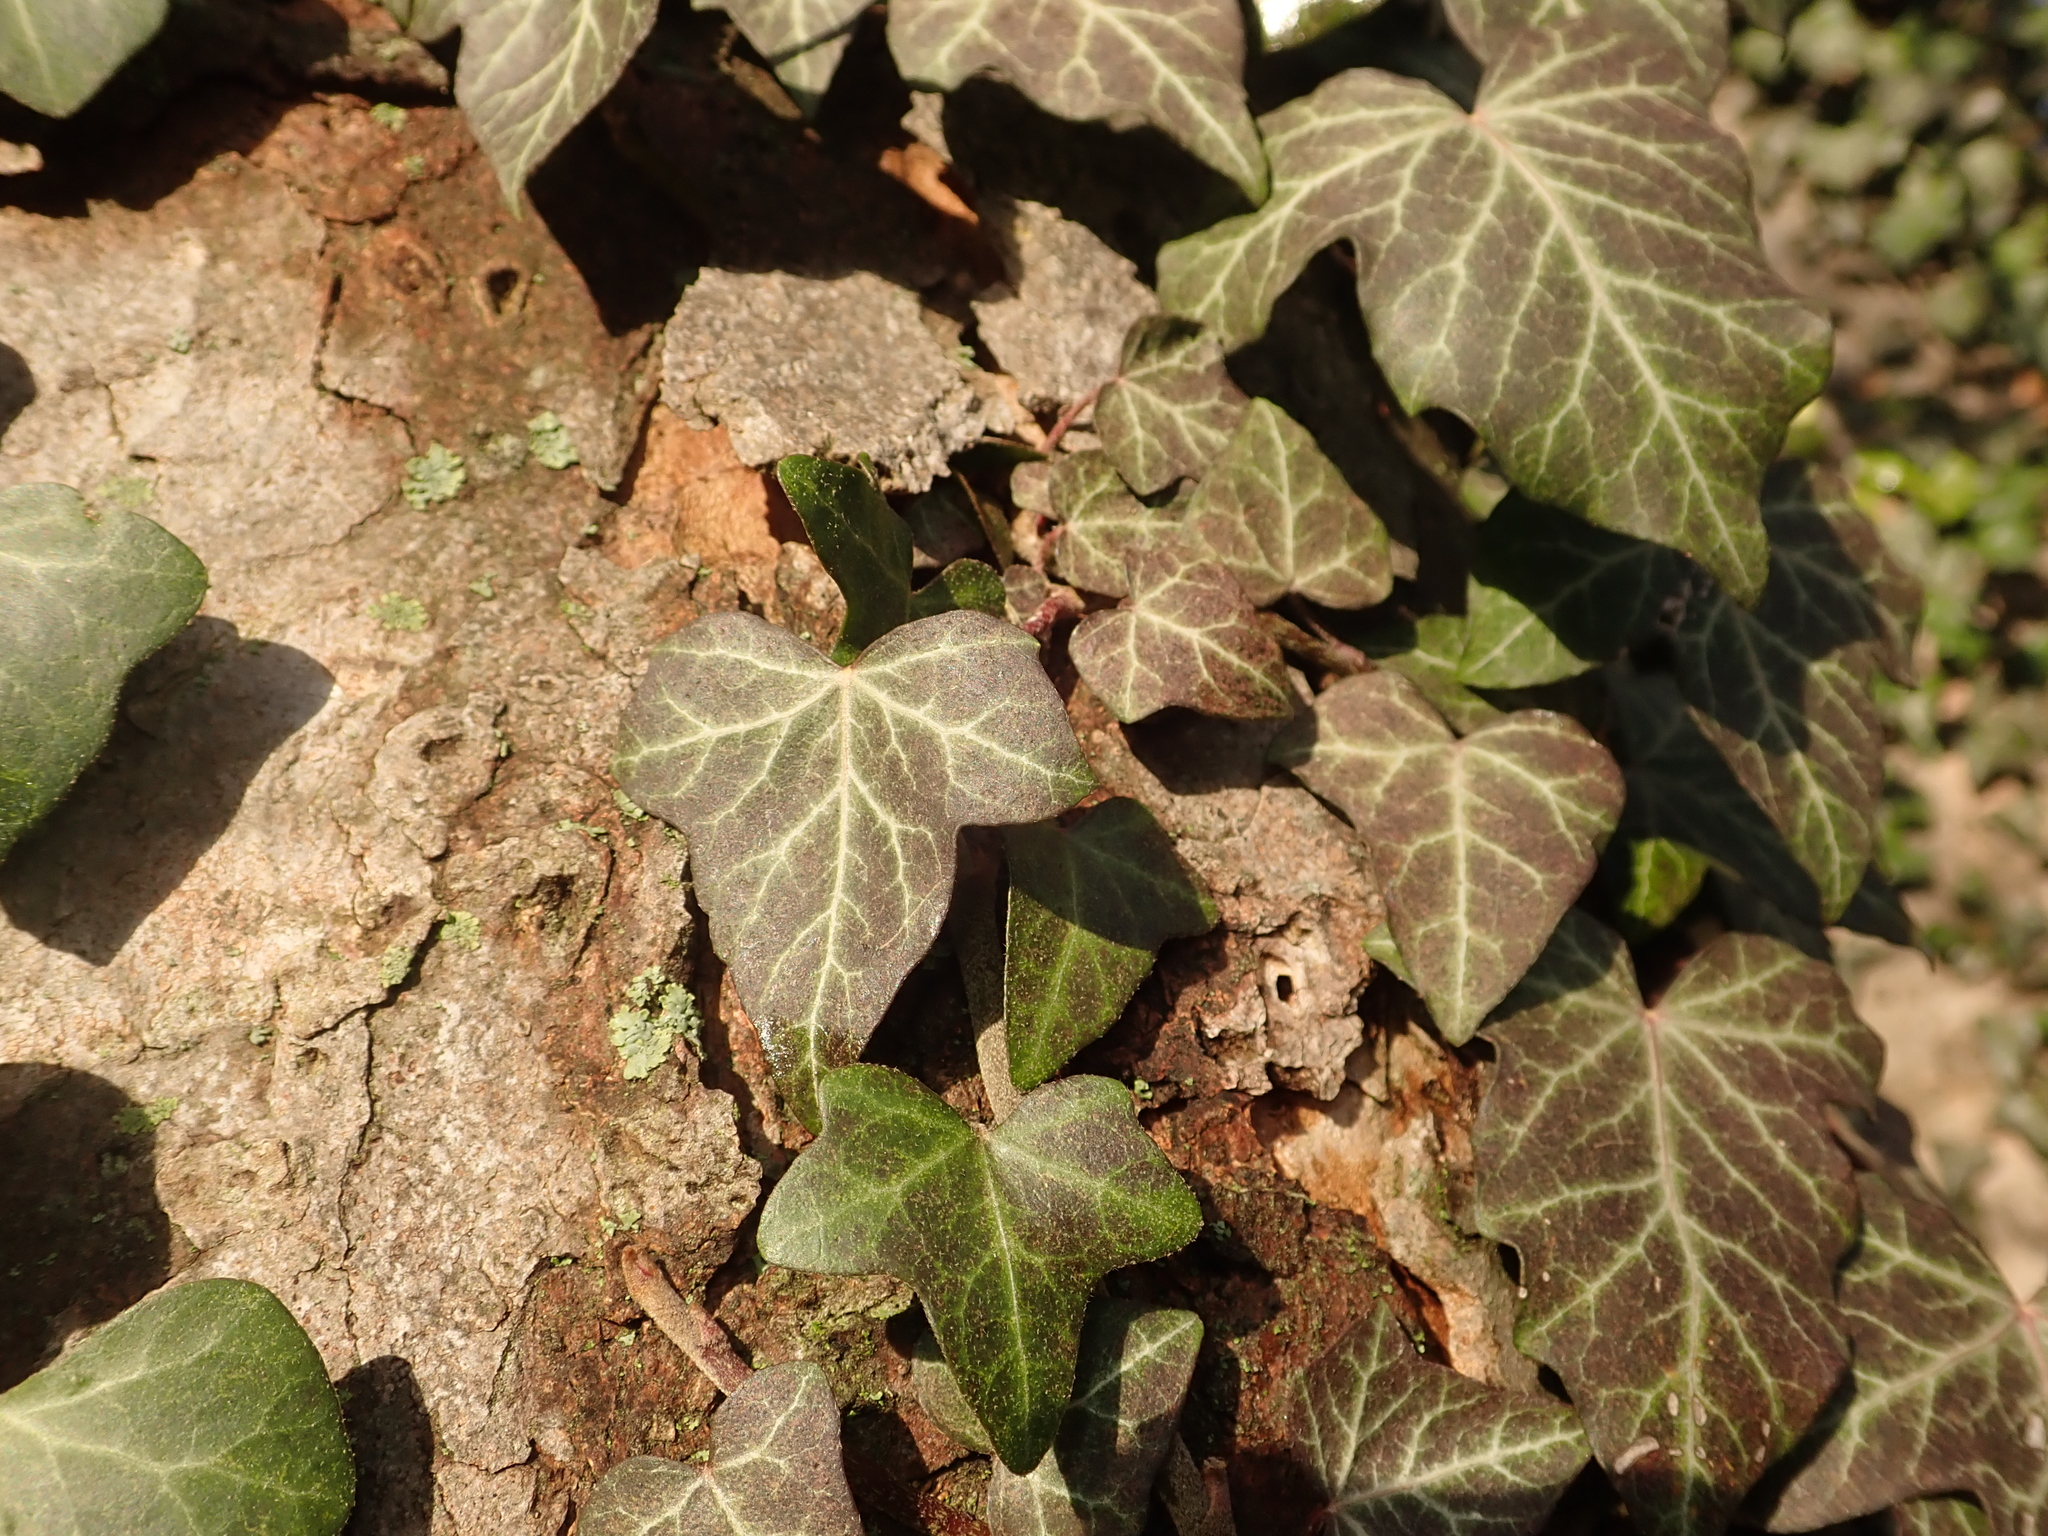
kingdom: Plantae
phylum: Tracheophyta
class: Magnoliopsida
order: Apiales
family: Araliaceae
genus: Hedera
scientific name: Hedera helix
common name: Ivy
